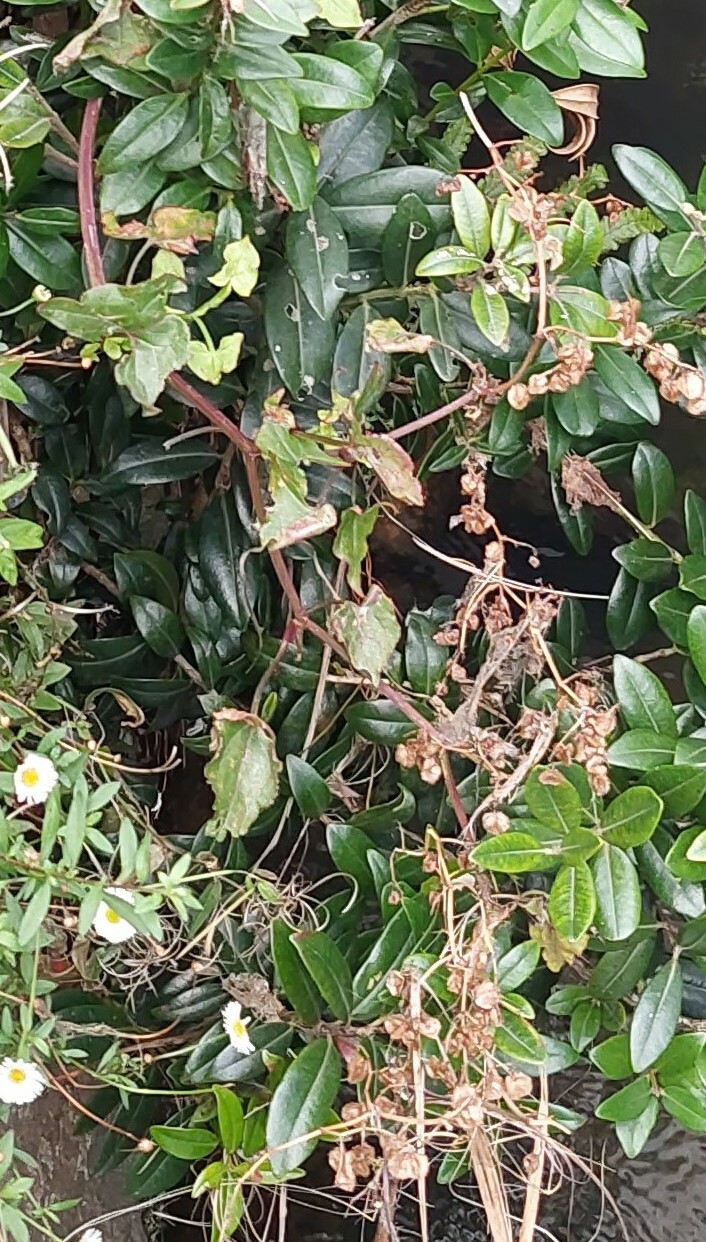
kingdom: Plantae
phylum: Tracheophyta
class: Magnoliopsida
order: Caryophyllales
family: Polygonaceae
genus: Rumex
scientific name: Rumex sagittatus
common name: Climbing dock
